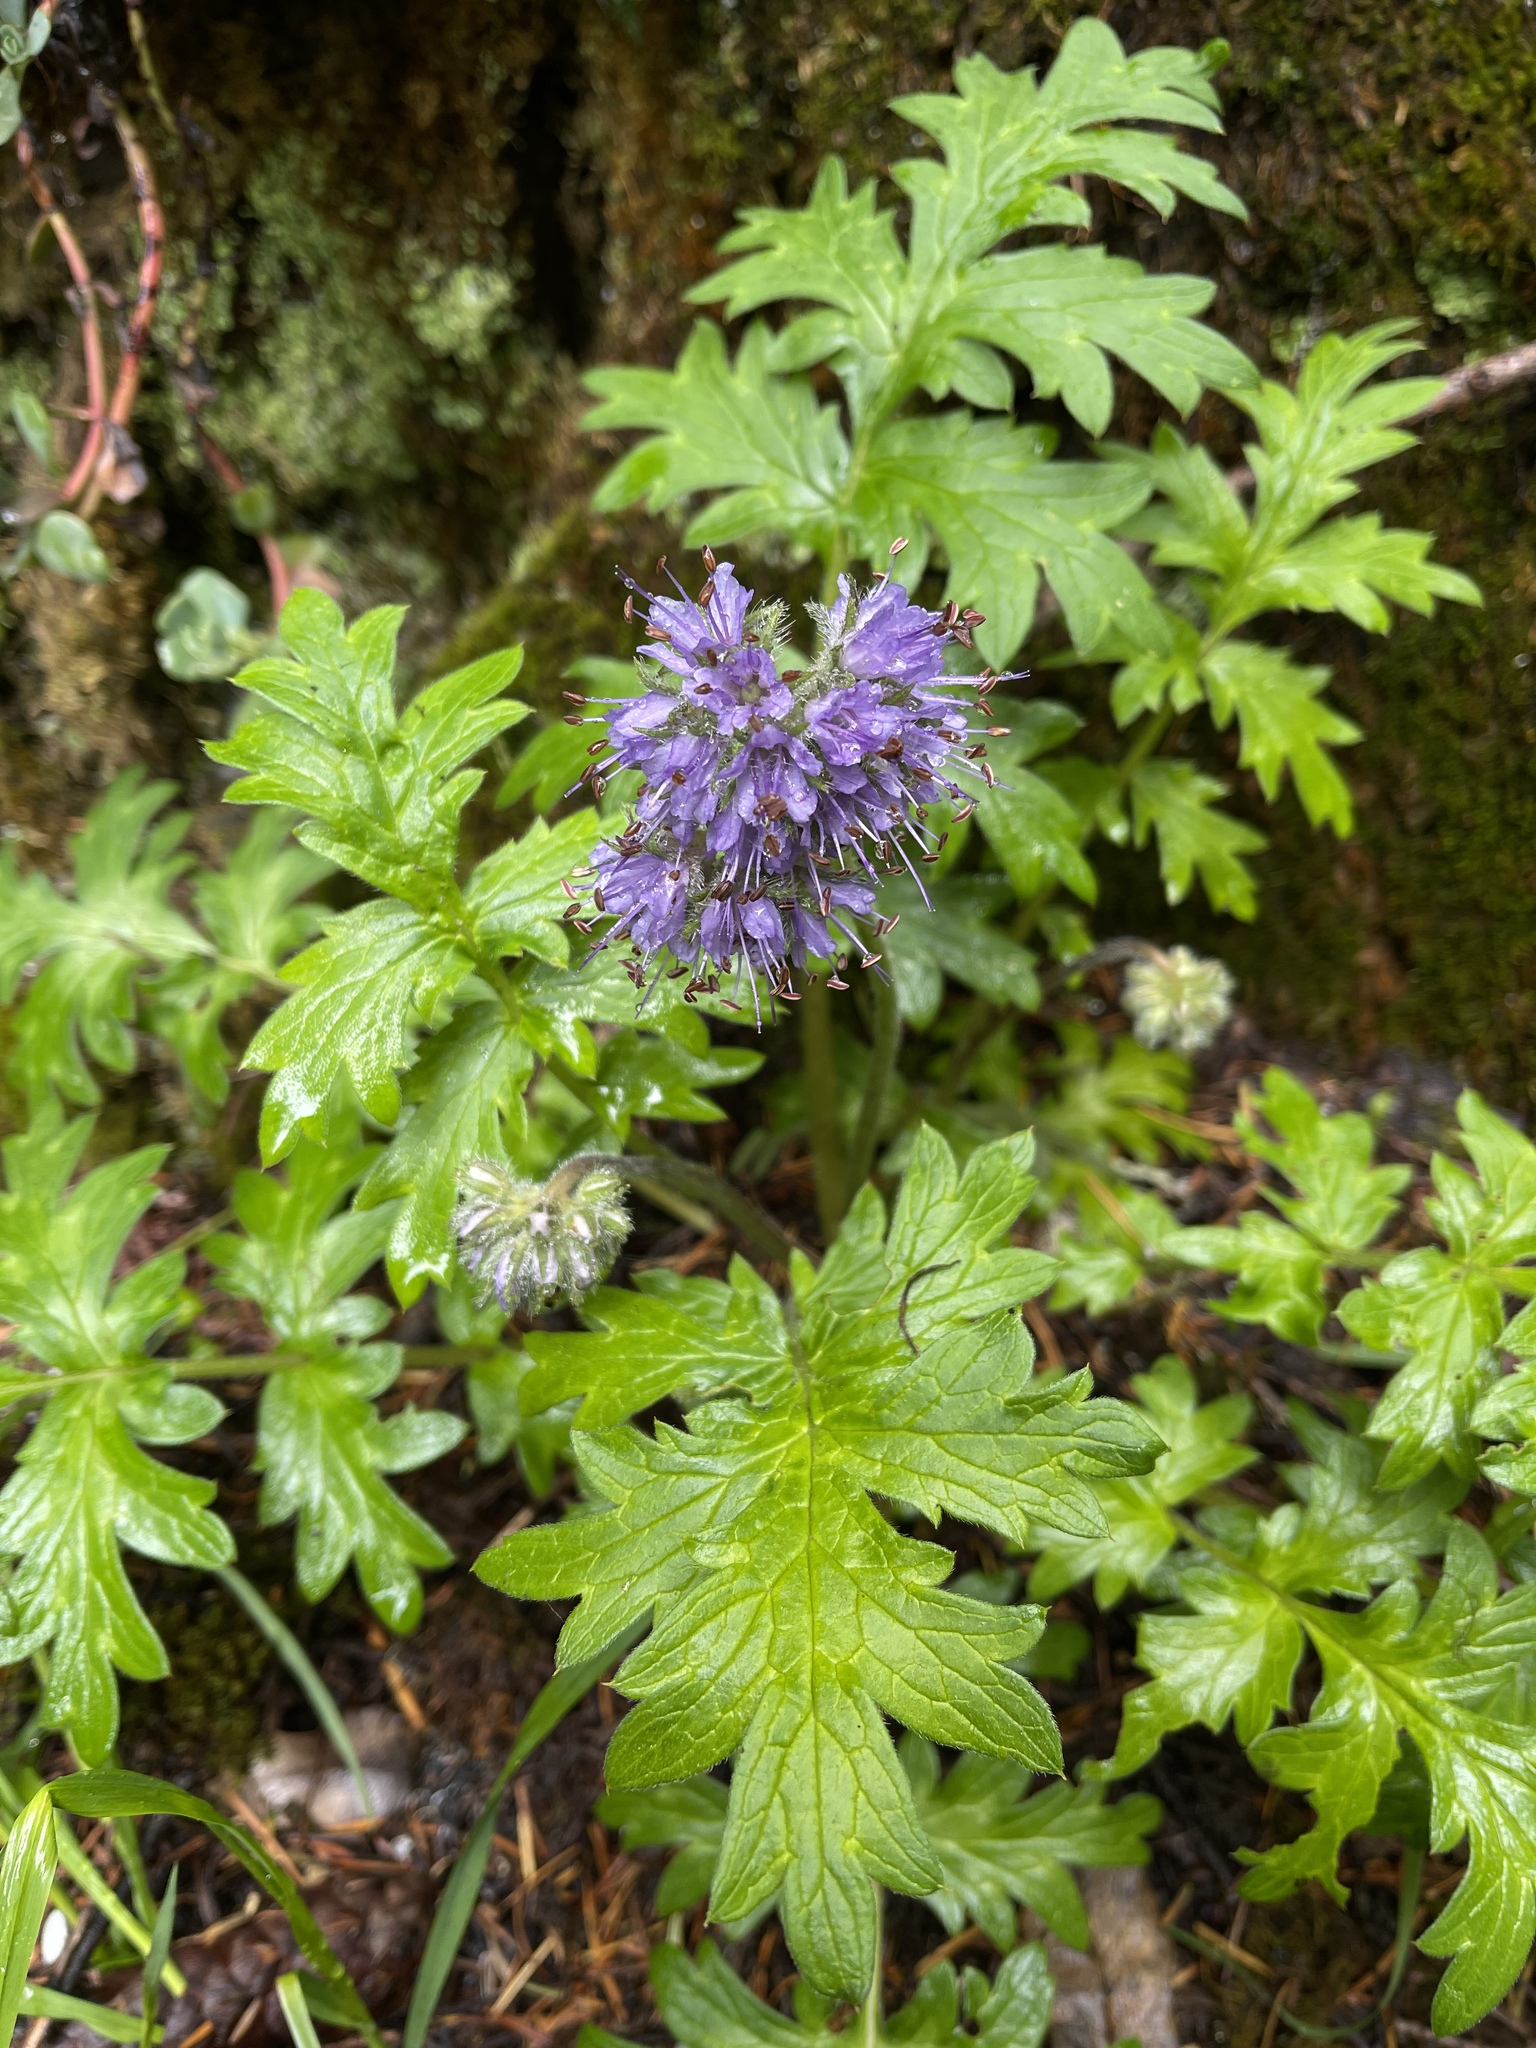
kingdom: Plantae
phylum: Tracheophyta
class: Magnoliopsida
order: Boraginales
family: Hydrophyllaceae
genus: Hydrophyllum
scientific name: Hydrophyllum occidentale
